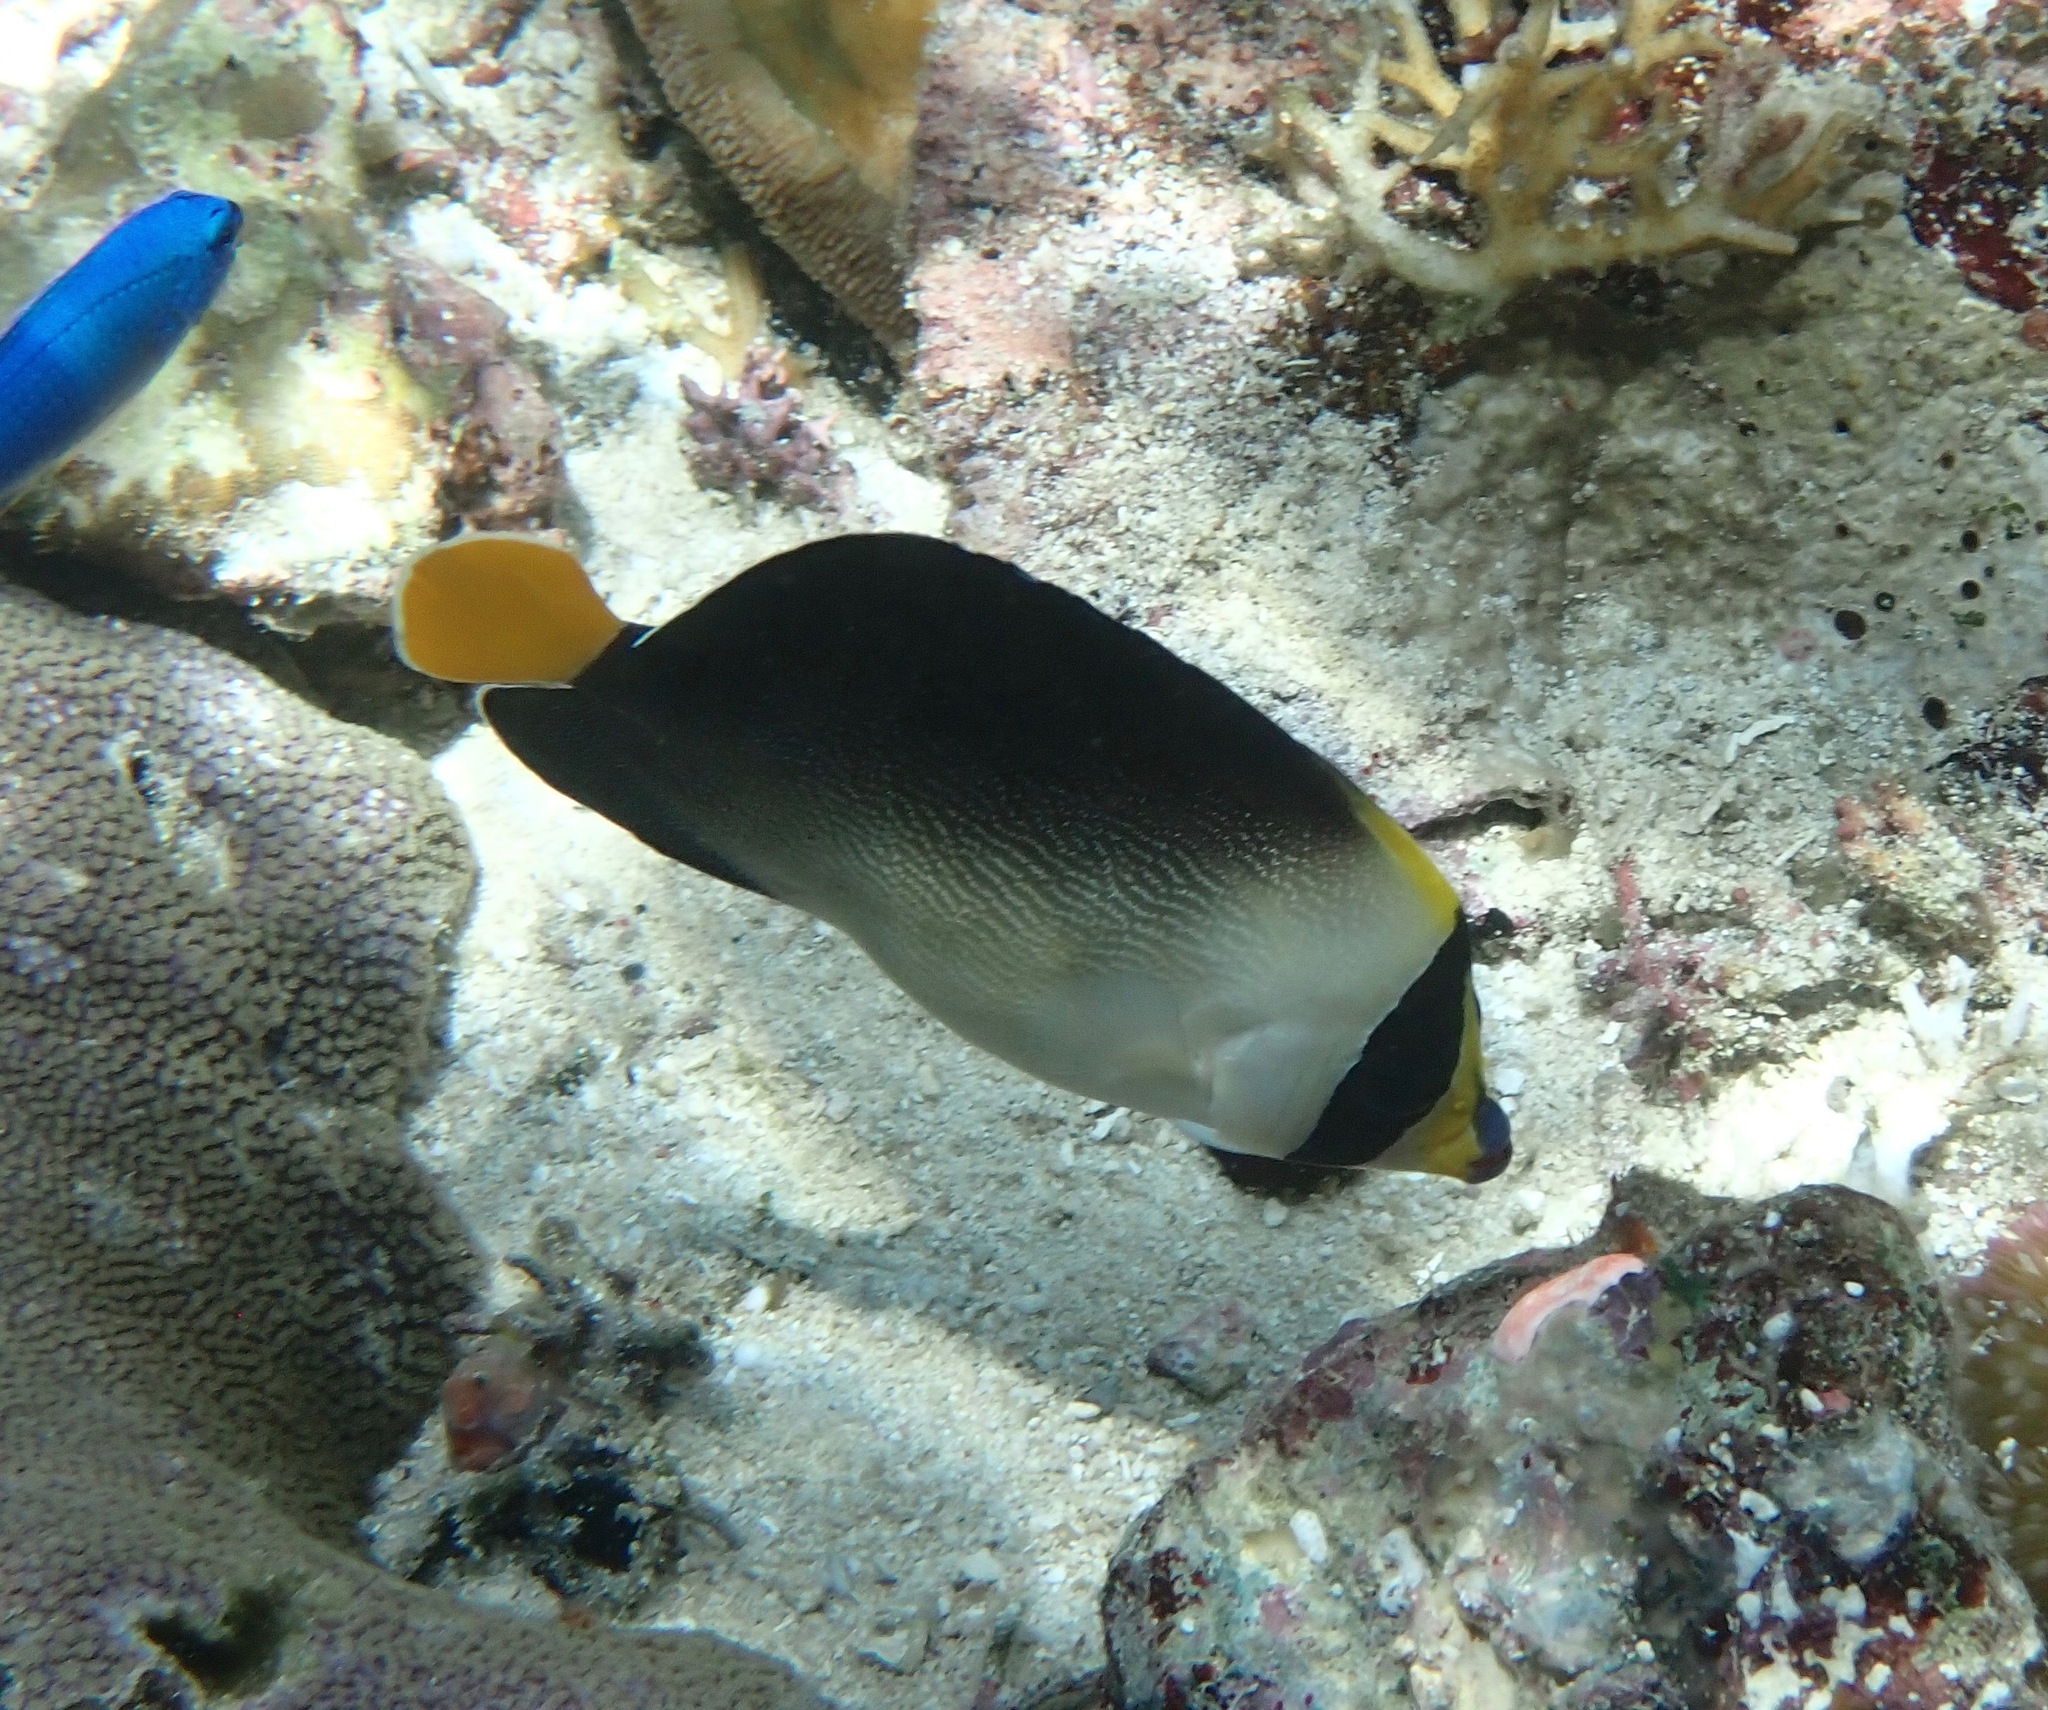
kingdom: Animalia
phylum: Chordata
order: Perciformes
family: Pomacanthidae
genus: Chaetodontoplus
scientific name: Chaetodontoplus mesoleucus
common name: Vermiculated angelfish
